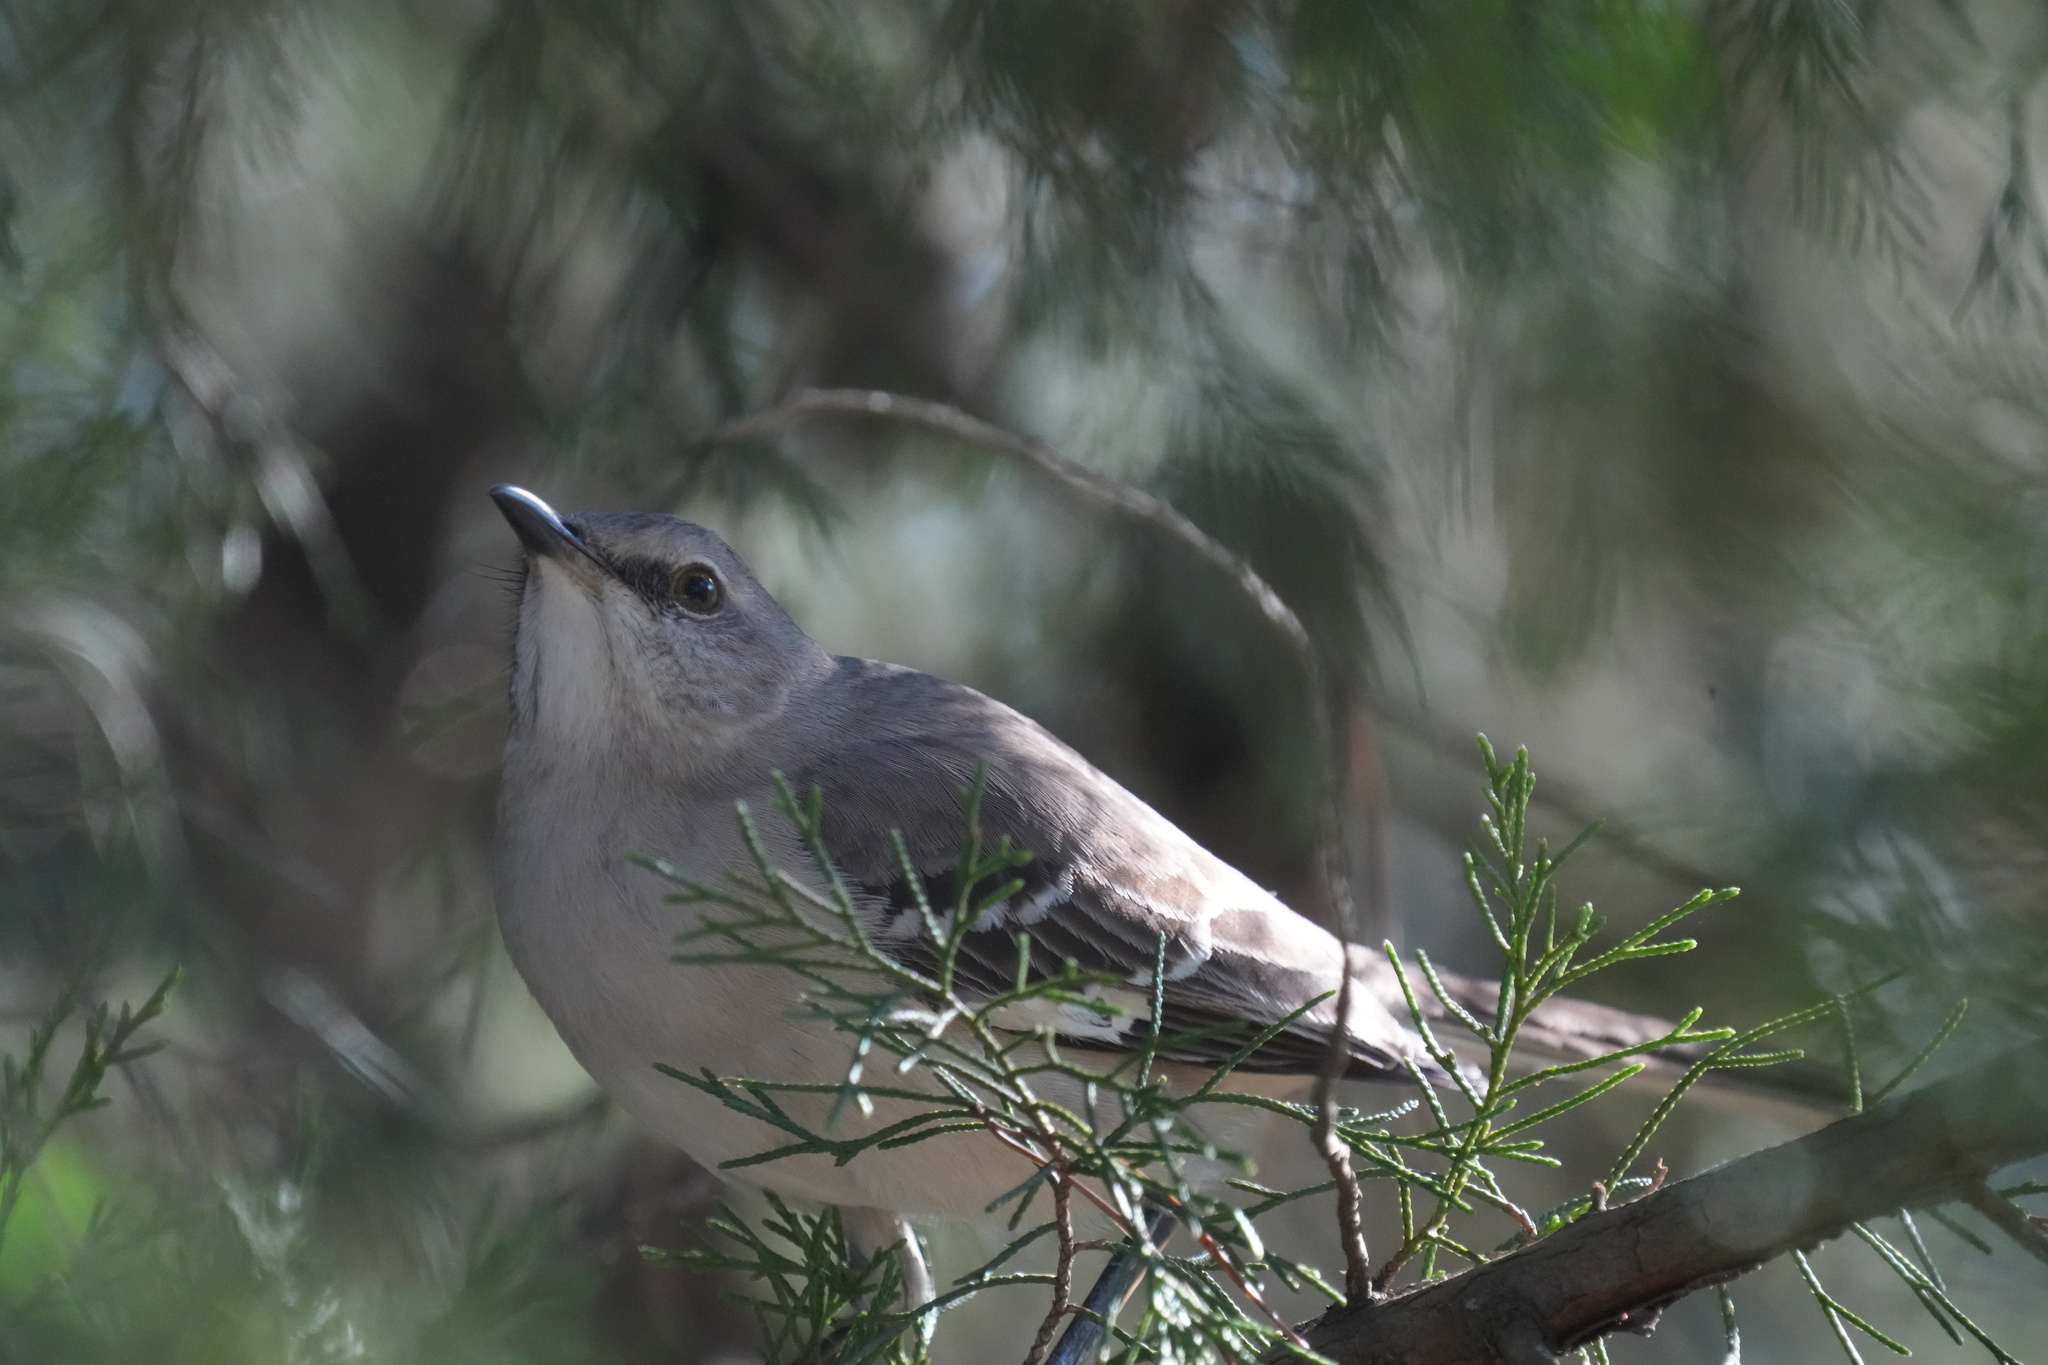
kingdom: Animalia
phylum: Chordata
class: Aves
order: Passeriformes
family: Mimidae
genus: Mimus
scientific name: Mimus polyglottos
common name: Northern mockingbird
